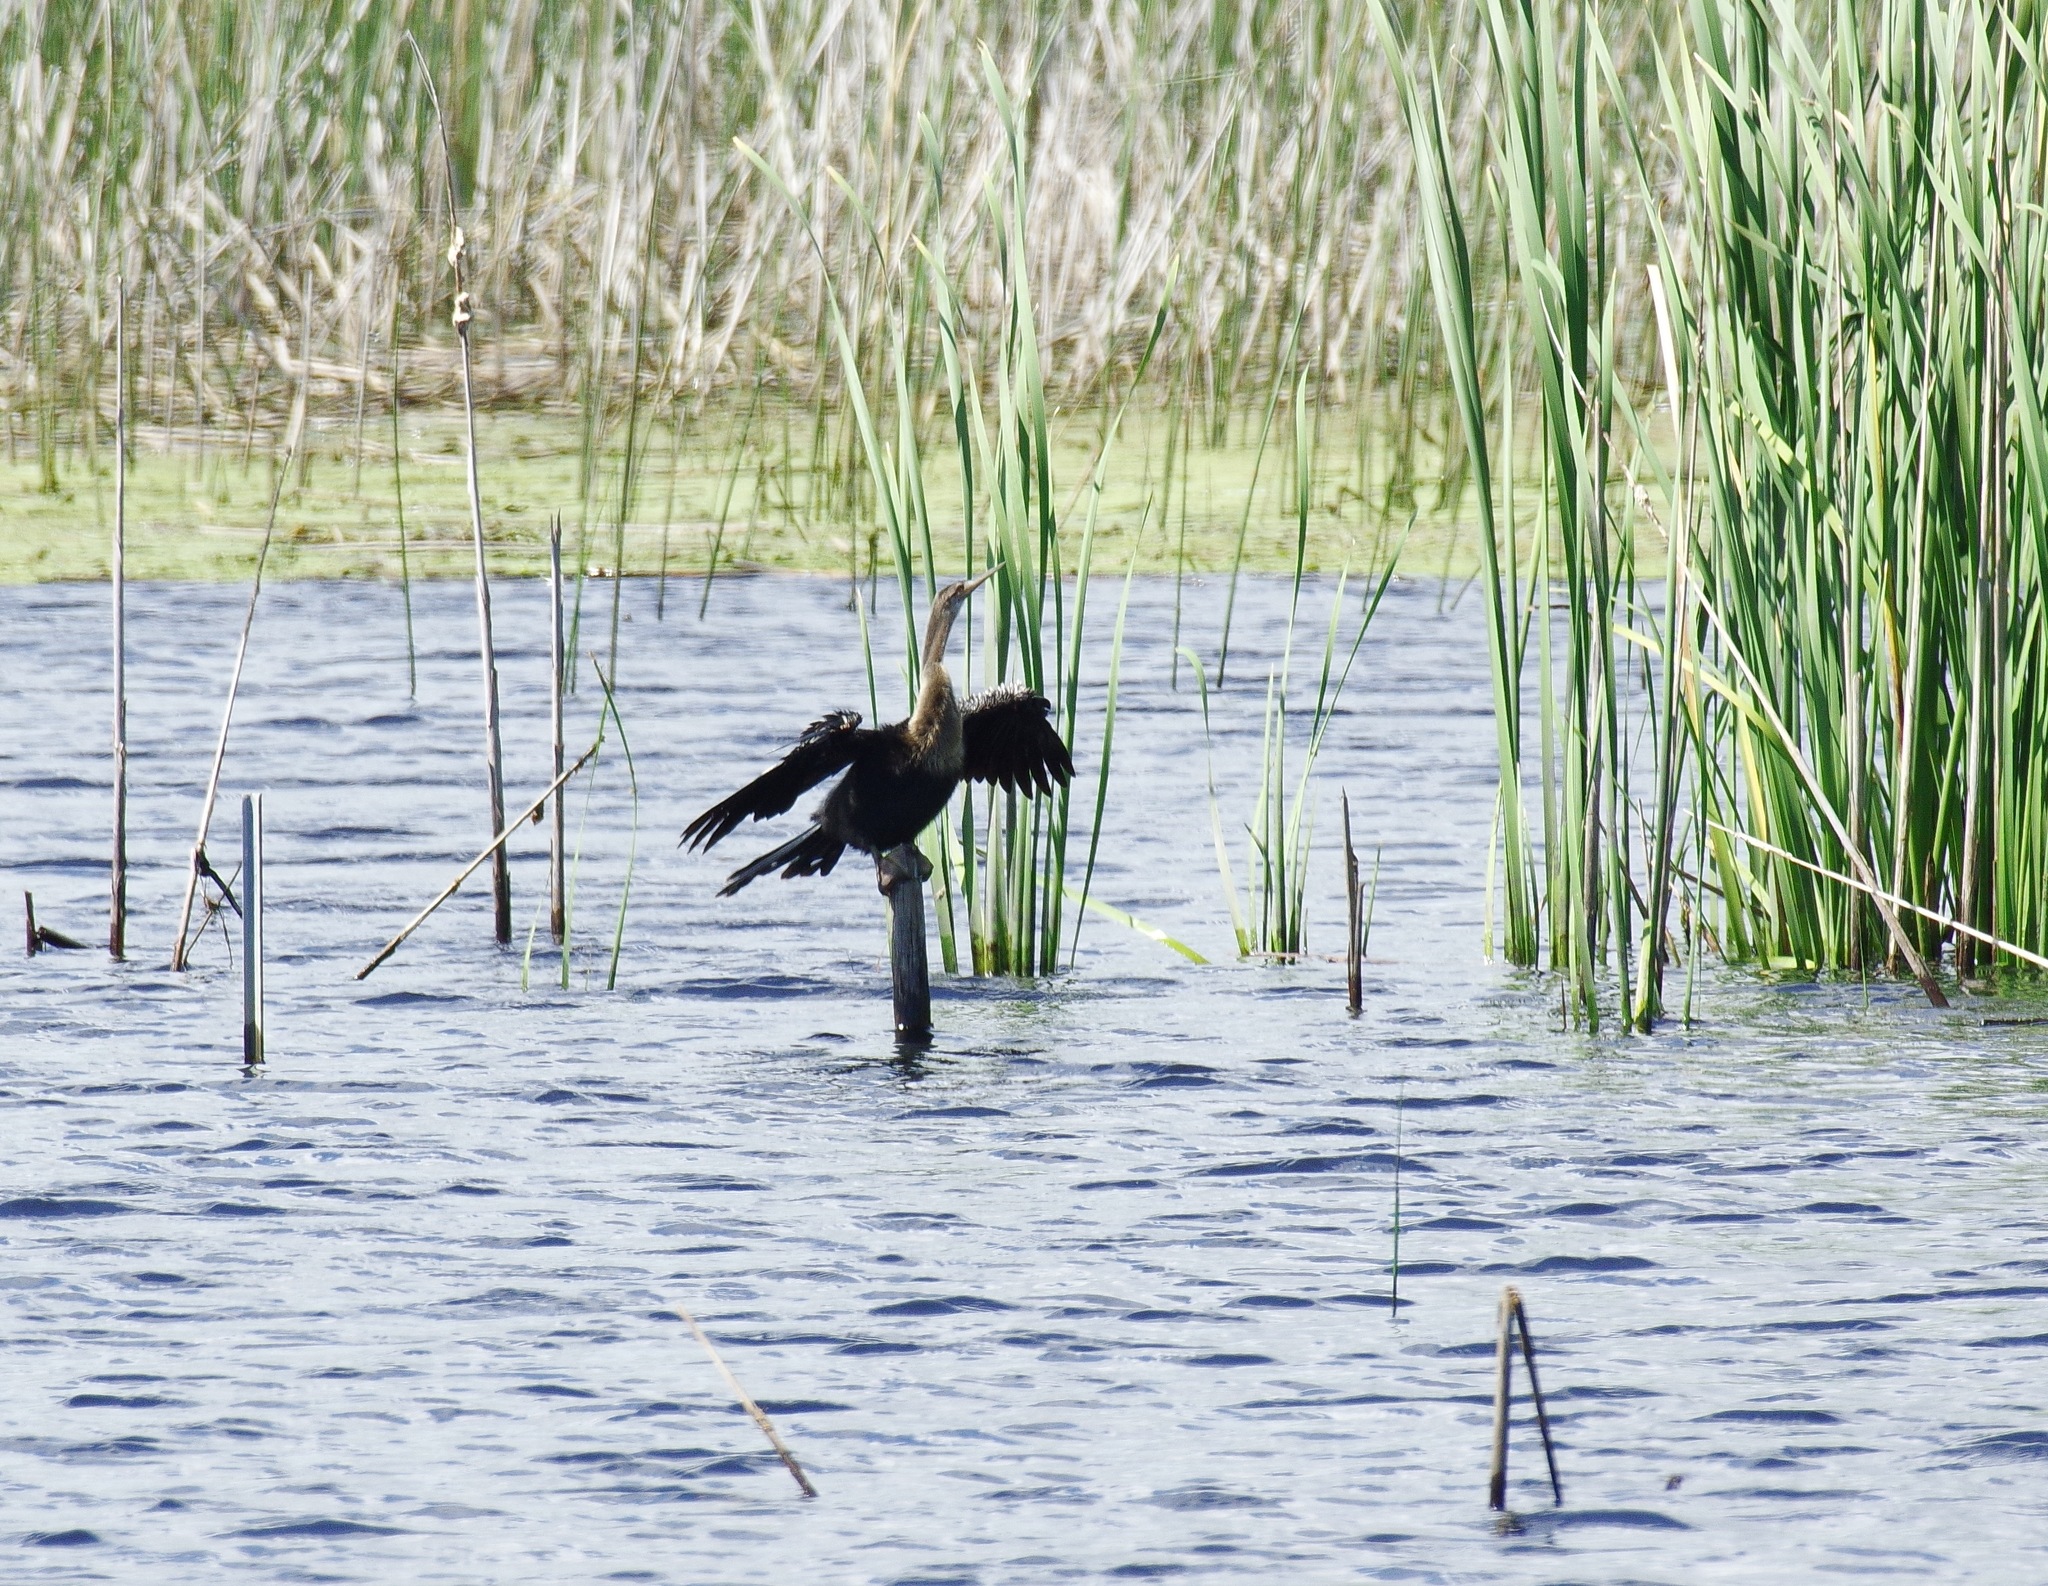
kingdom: Animalia
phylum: Chordata
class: Aves
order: Suliformes
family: Anhingidae
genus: Anhinga
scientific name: Anhinga anhinga
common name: Anhinga
